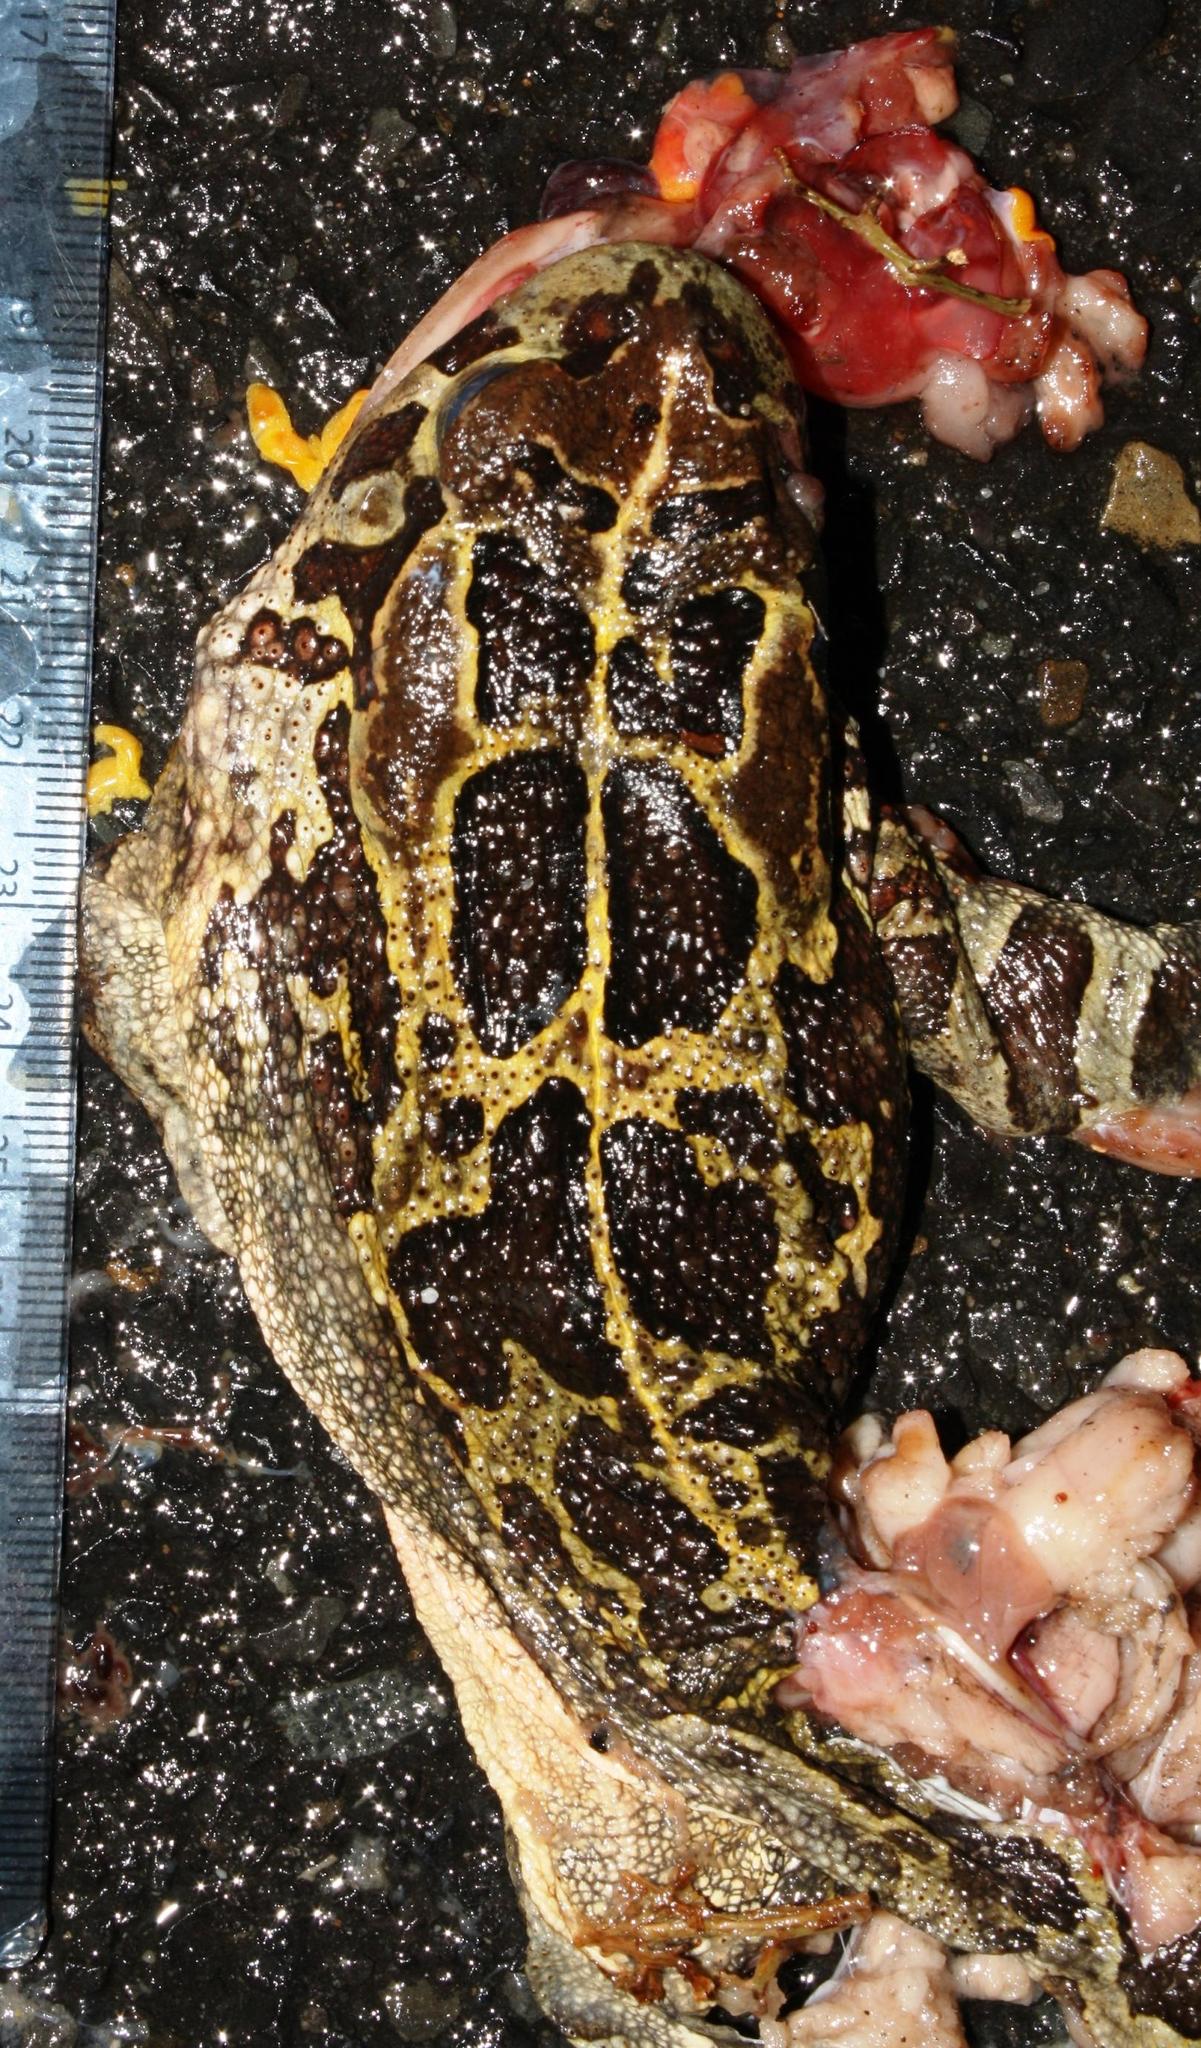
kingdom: Animalia
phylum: Chordata
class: Amphibia
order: Anura
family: Bufonidae
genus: Sclerophrys
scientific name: Sclerophrys pantherina
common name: Panther toad
